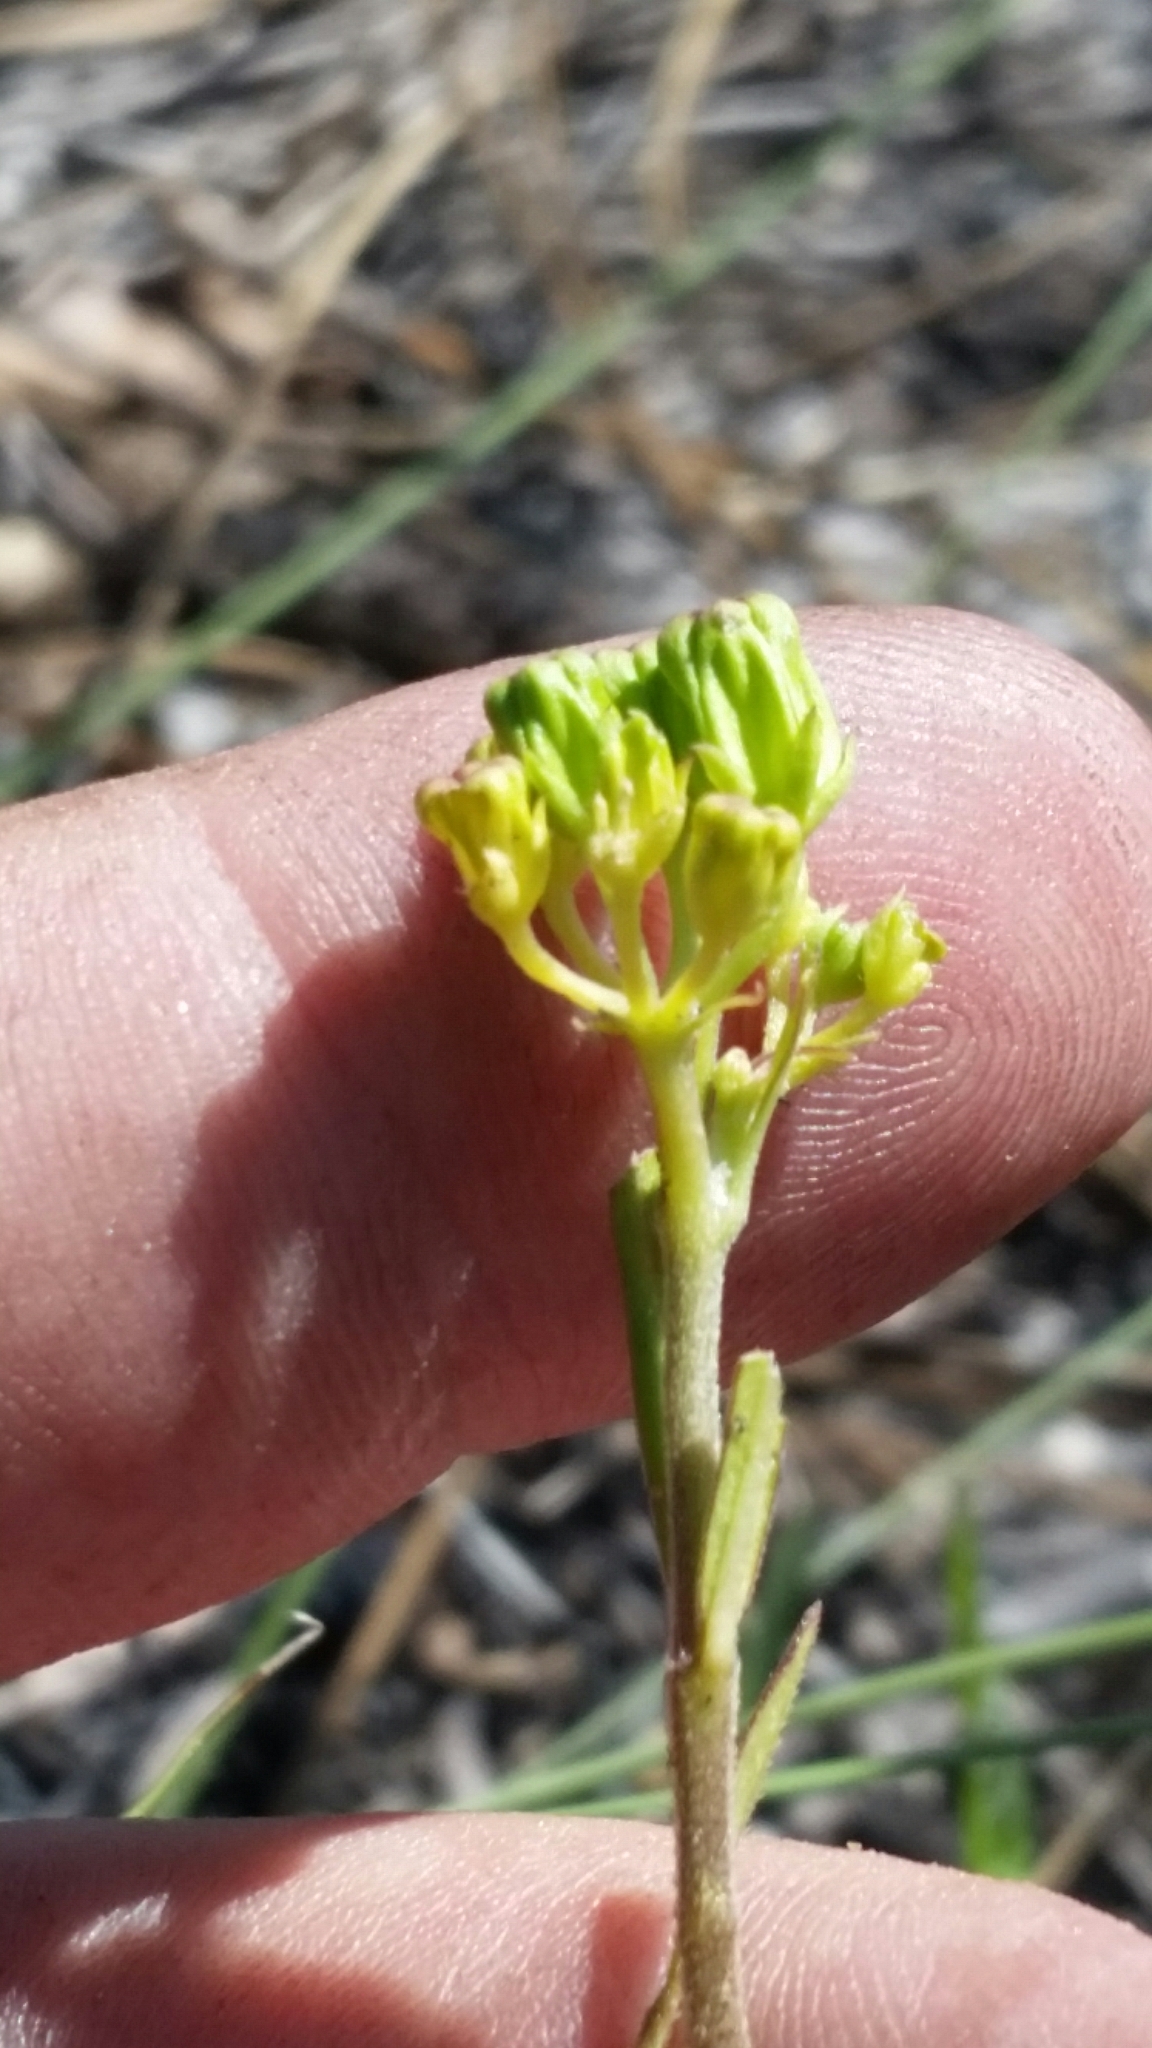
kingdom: Plantae
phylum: Tracheophyta
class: Magnoliopsida
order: Gentianales
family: Apocynaceae
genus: Asclepias
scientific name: Asclepias pedicellata
